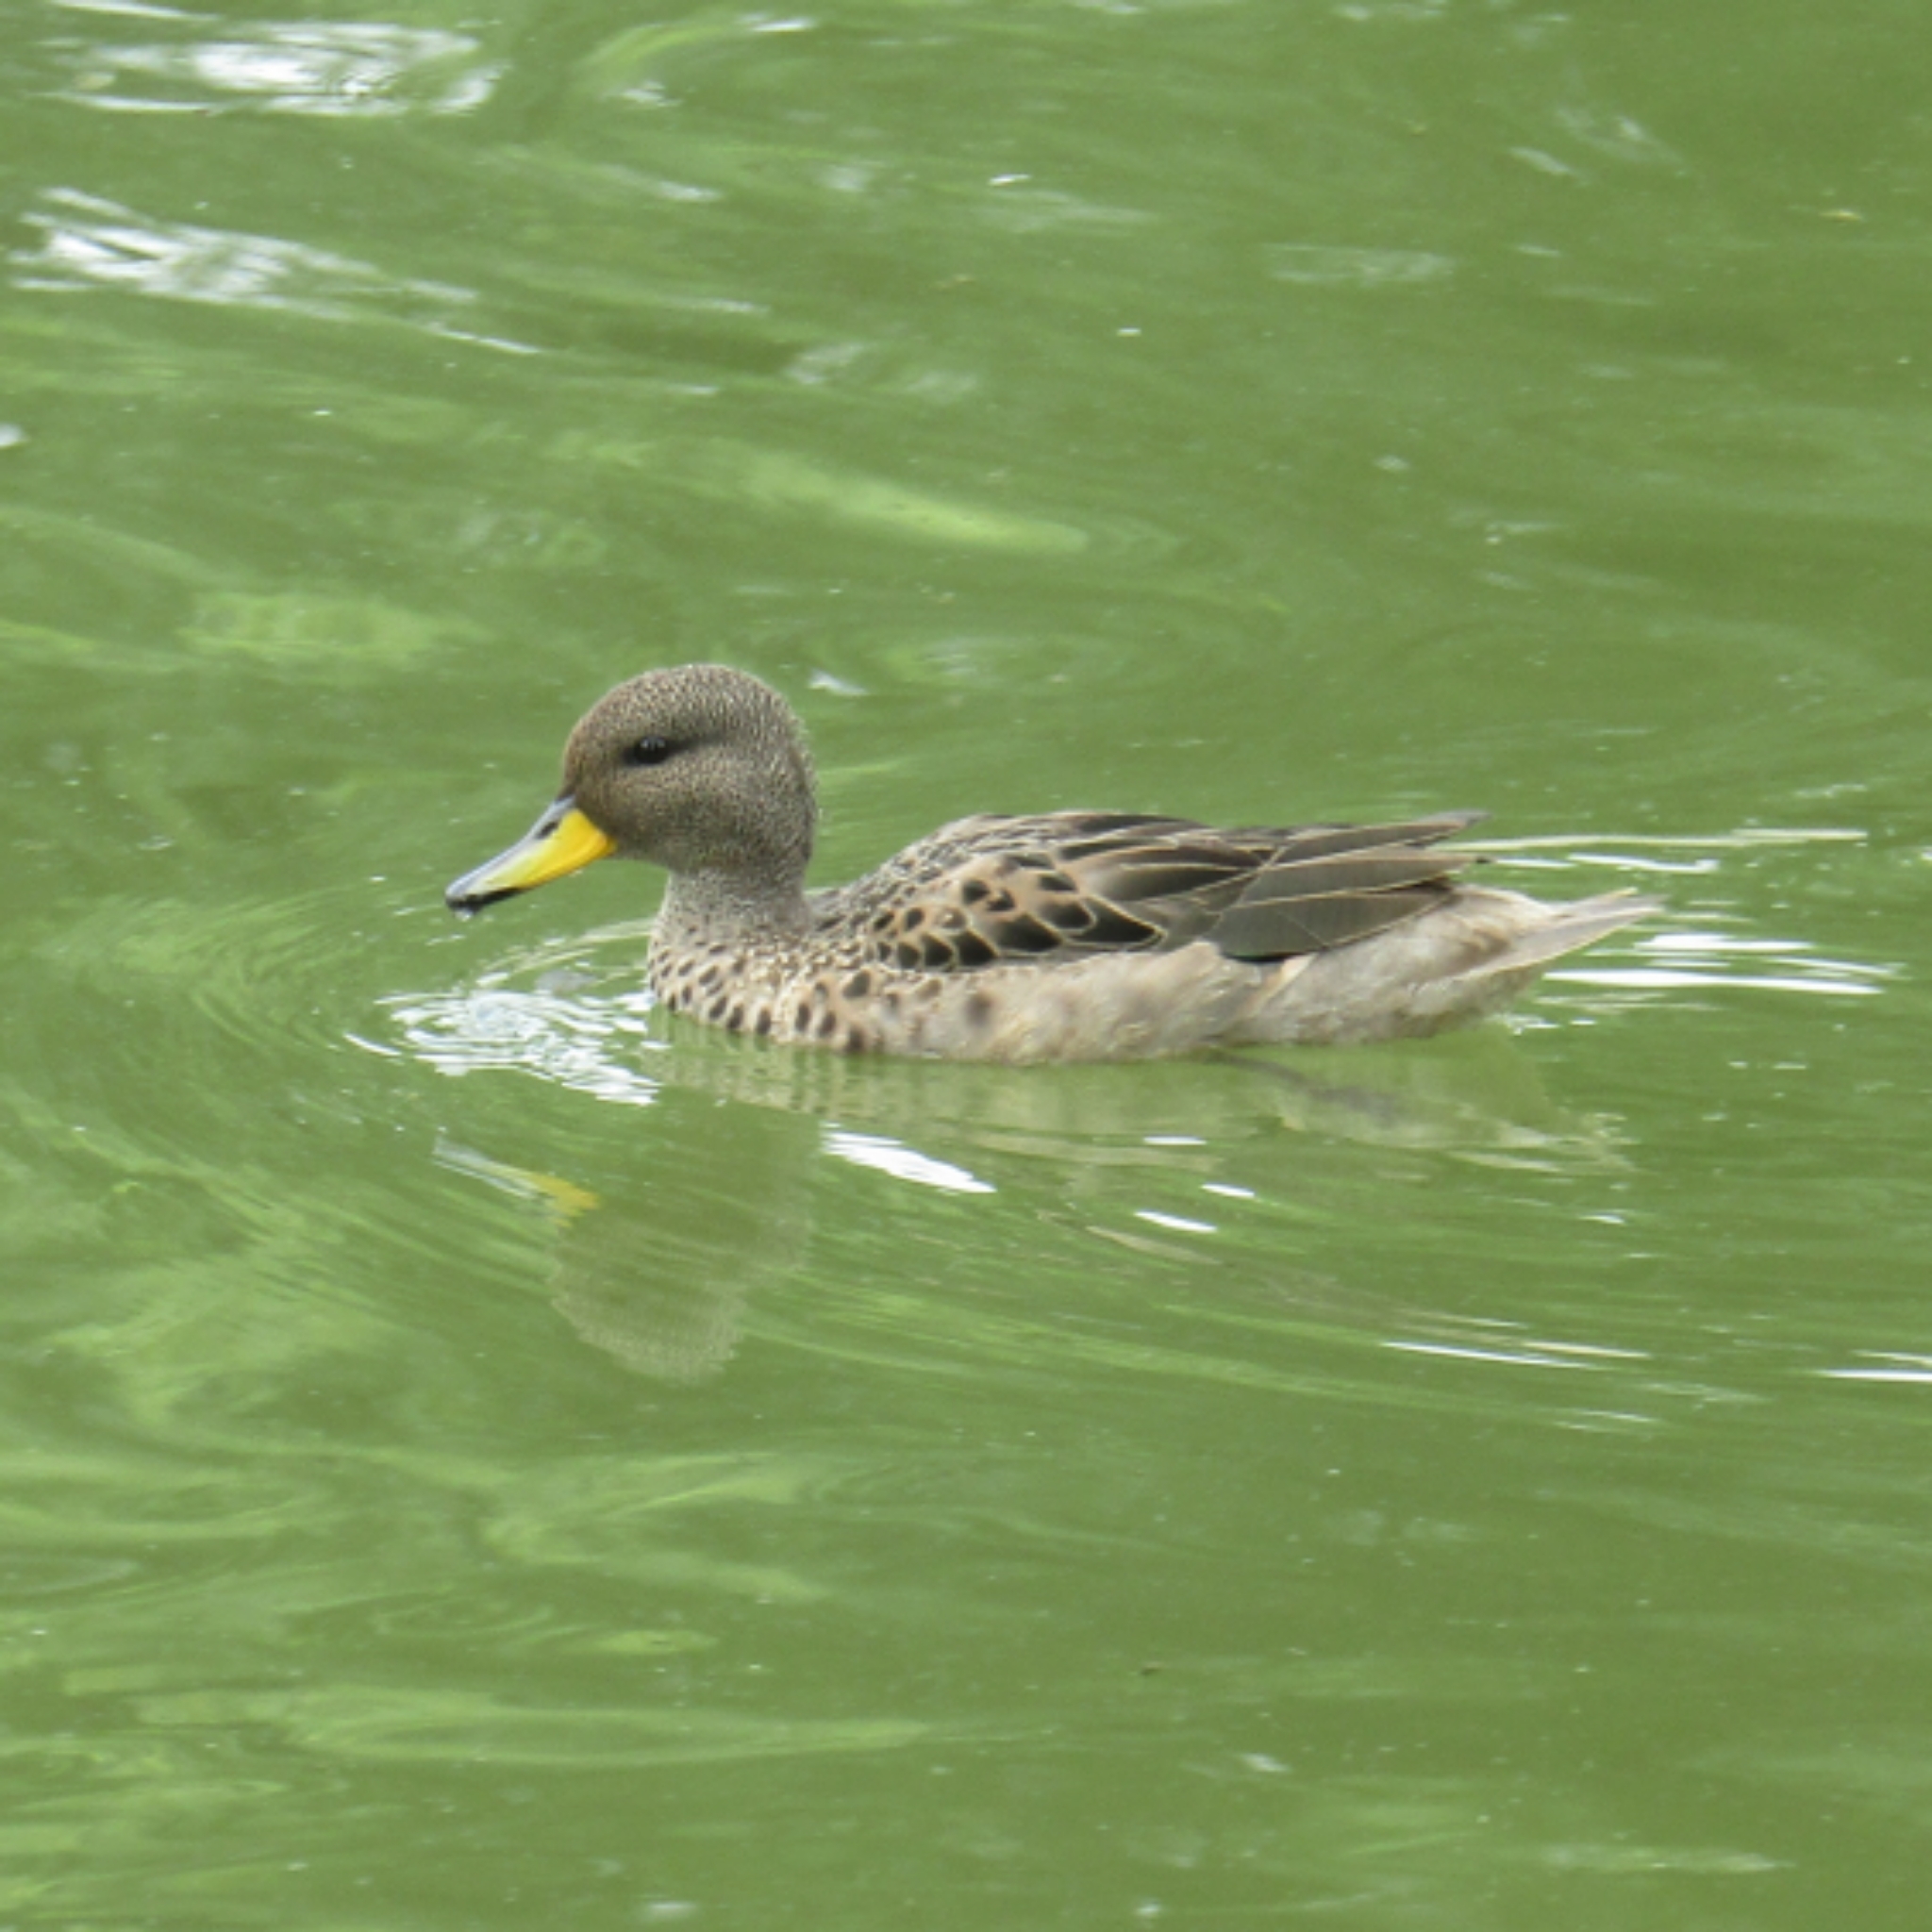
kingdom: Animalia
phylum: Chordata
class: Aves
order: Anseriformes
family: Anatidae
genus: Anas
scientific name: Anas flavirostris
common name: Yellow-billed teal
